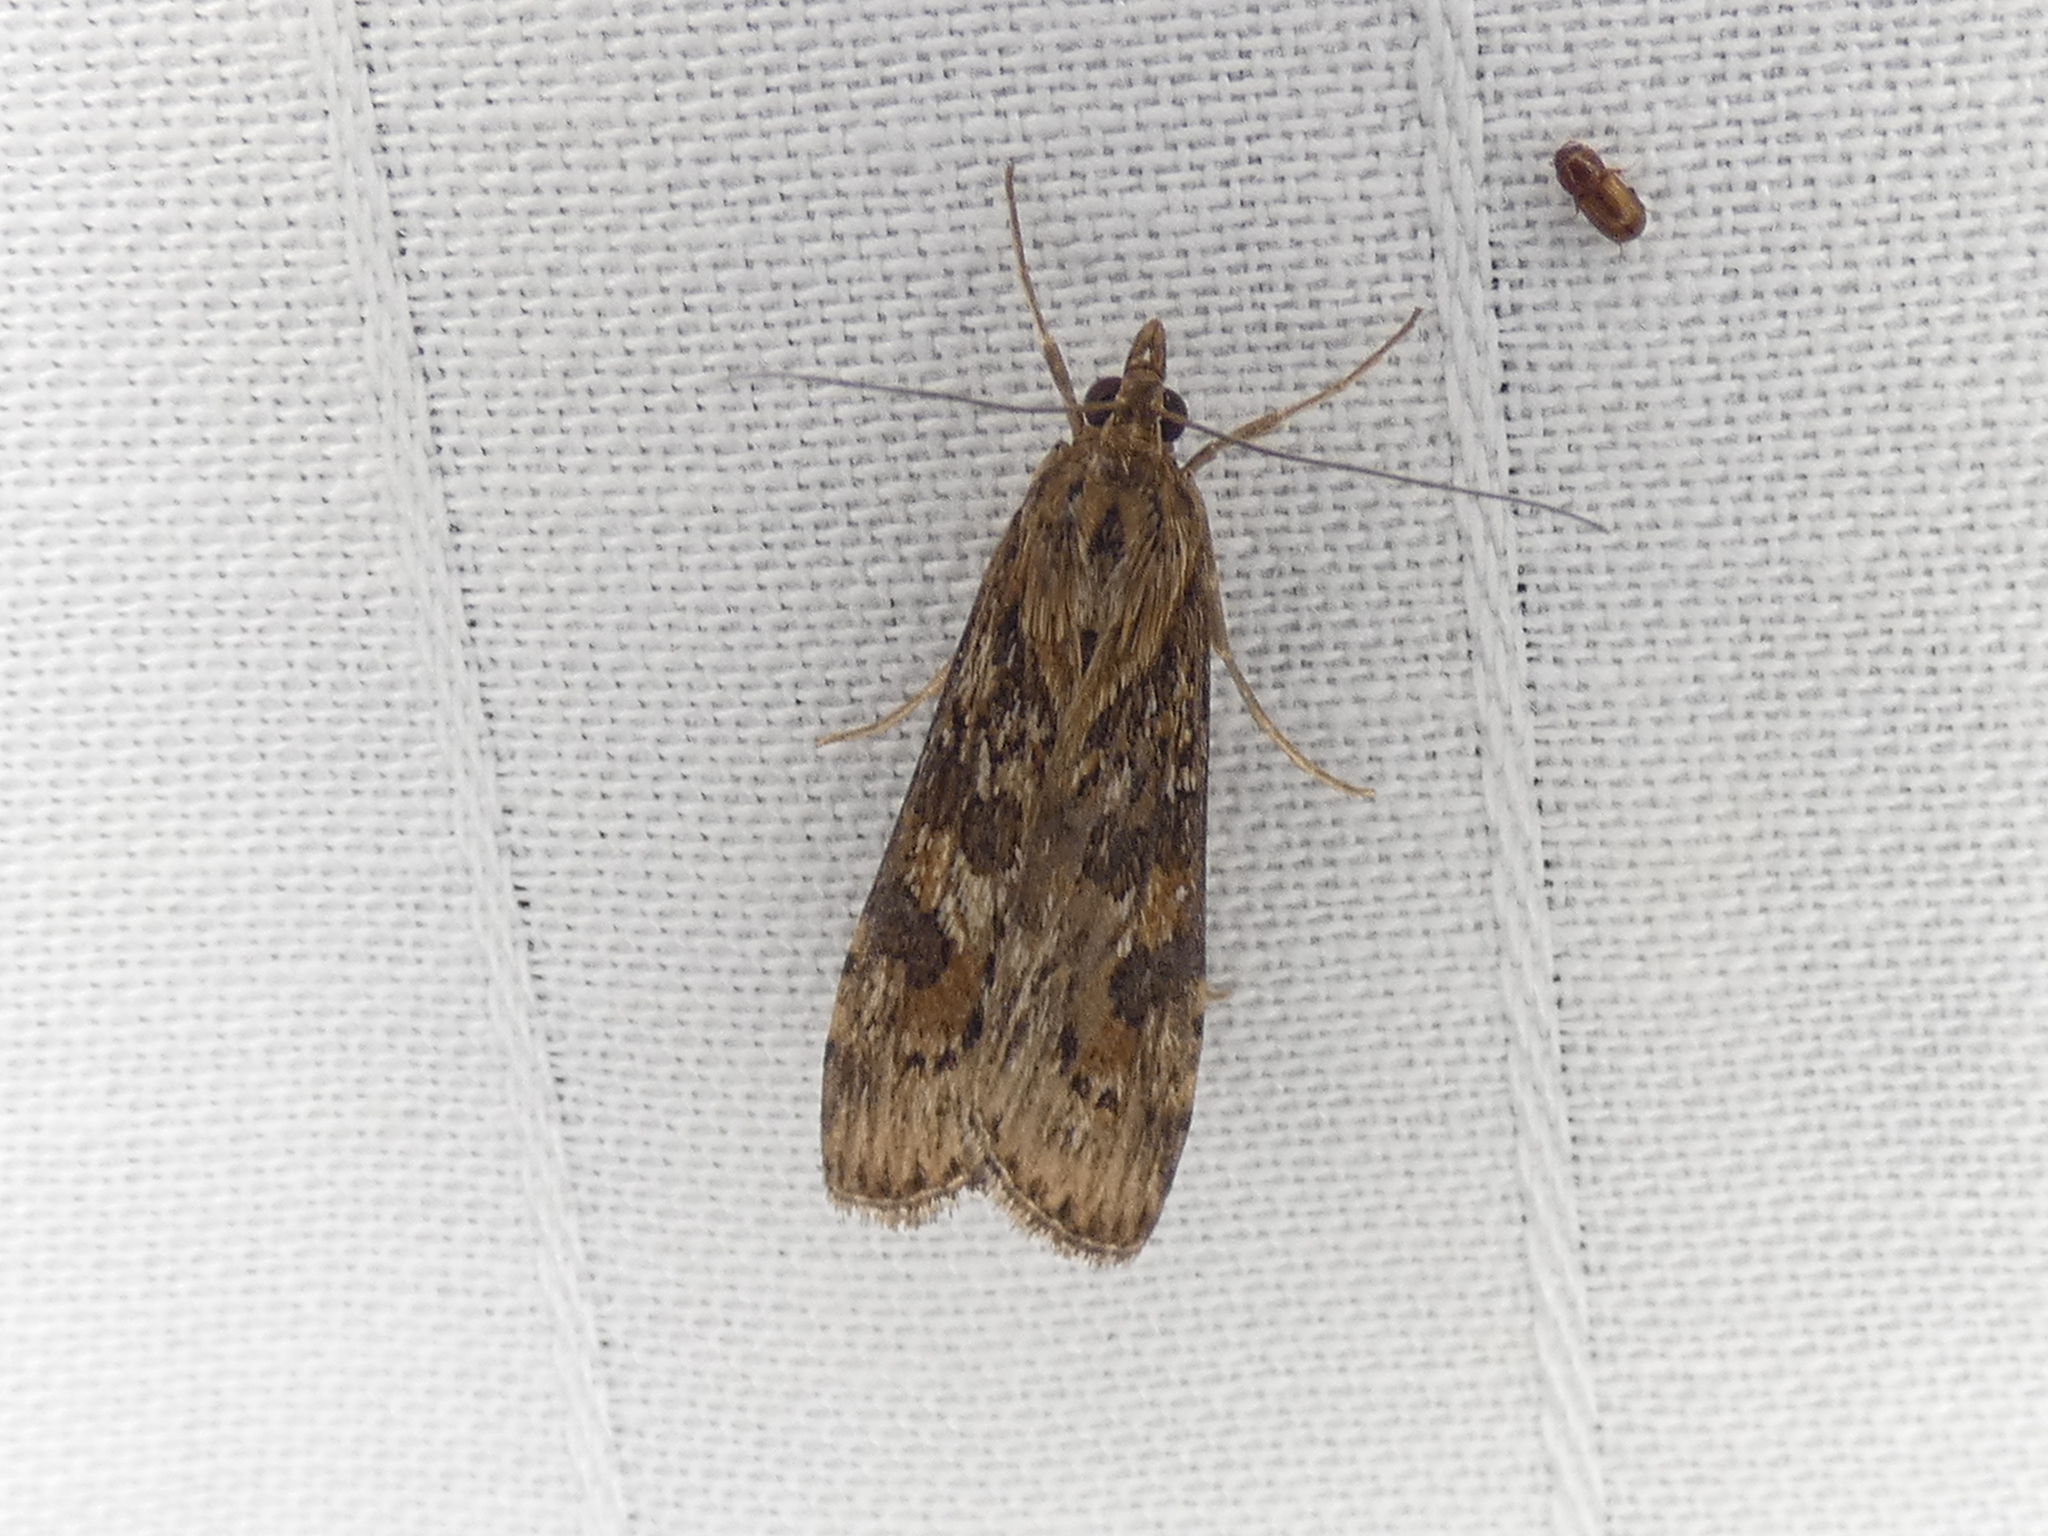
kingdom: Animalia
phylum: Arthropoda
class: Insecta
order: Lepidoptera
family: Crambidae
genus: Nomophila
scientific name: Nomophila nearctica
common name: American rush veneer
